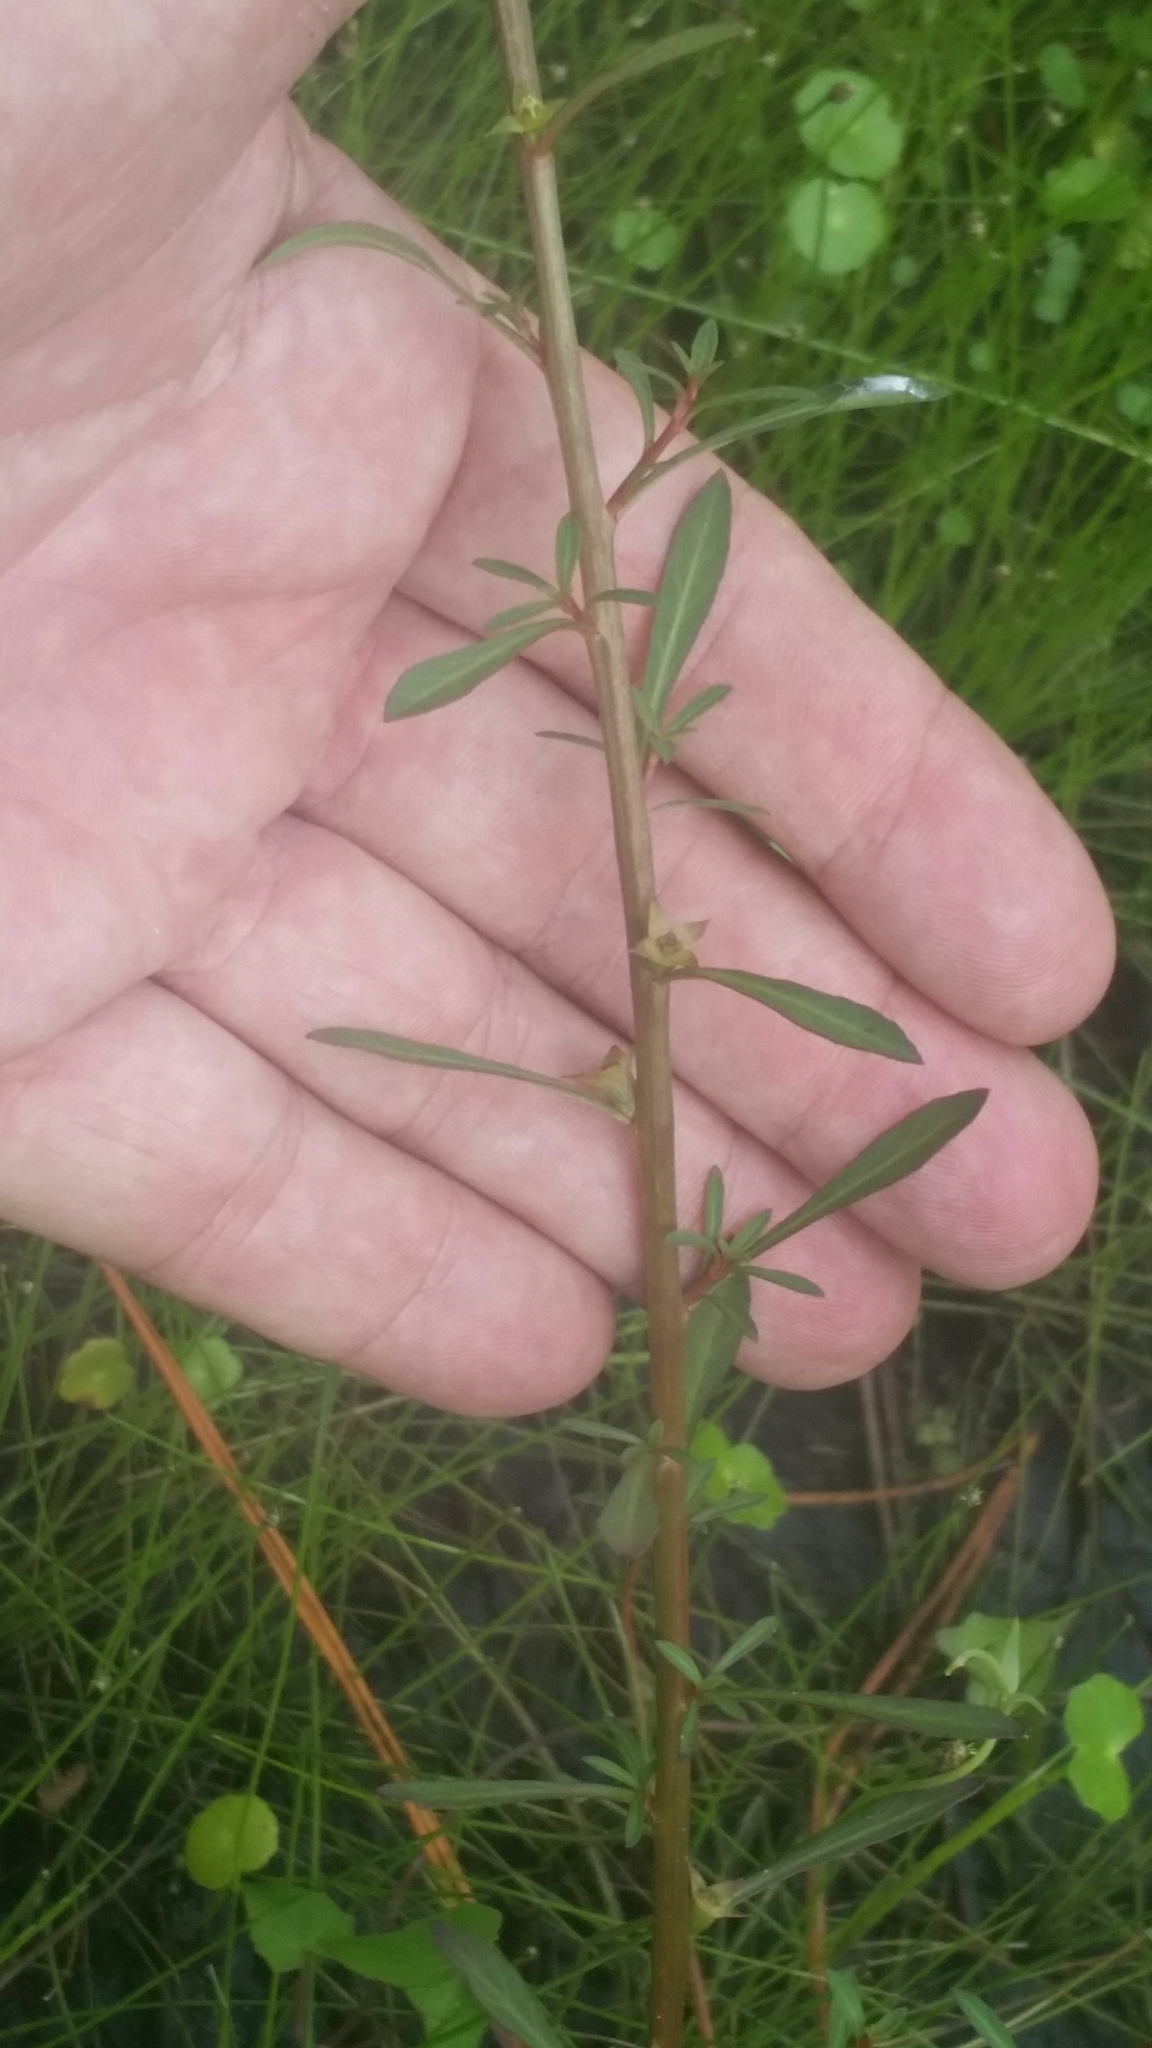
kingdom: Plantae
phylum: Tracheophyta
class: Magnoliopsida
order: Myrtales
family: Onagraceae
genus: Ludwigia
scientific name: Ludwigia curtissii
